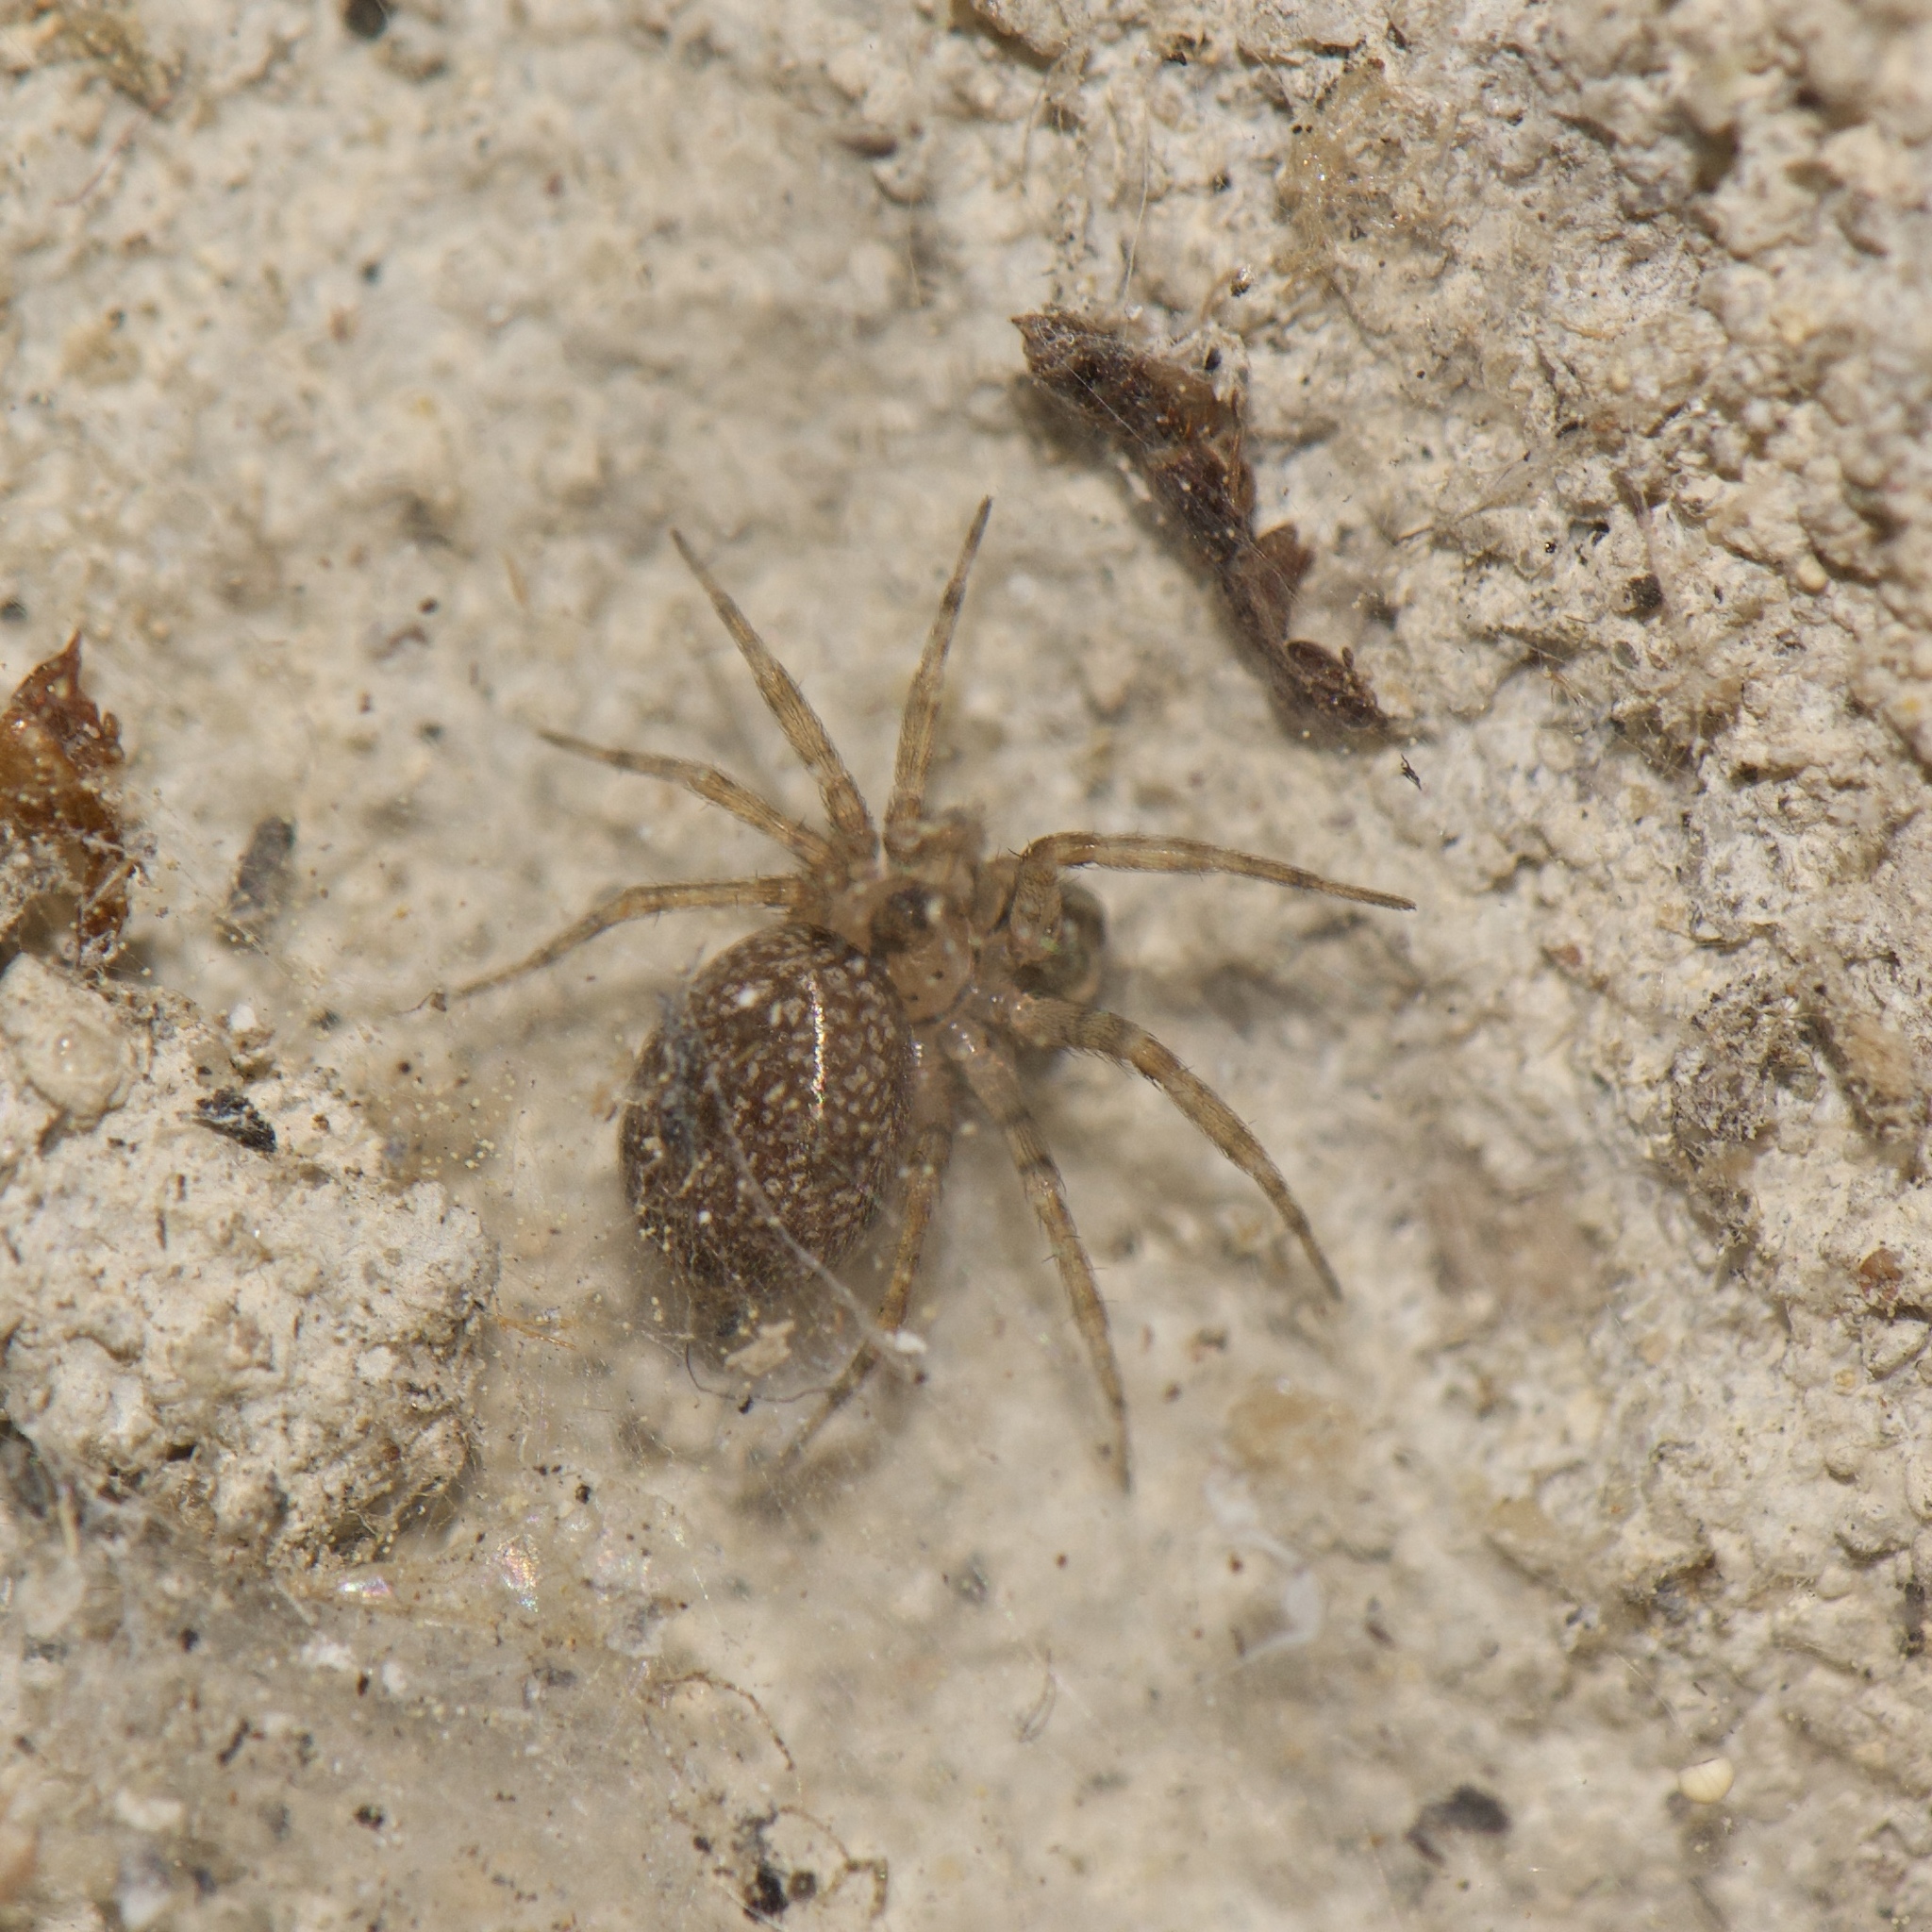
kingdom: Animalia
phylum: Arthropoda
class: Arachnida
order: Araneae
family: Oecobiidae
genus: Oecobius
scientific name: Oecobius navus
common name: Flatmesh weaver
